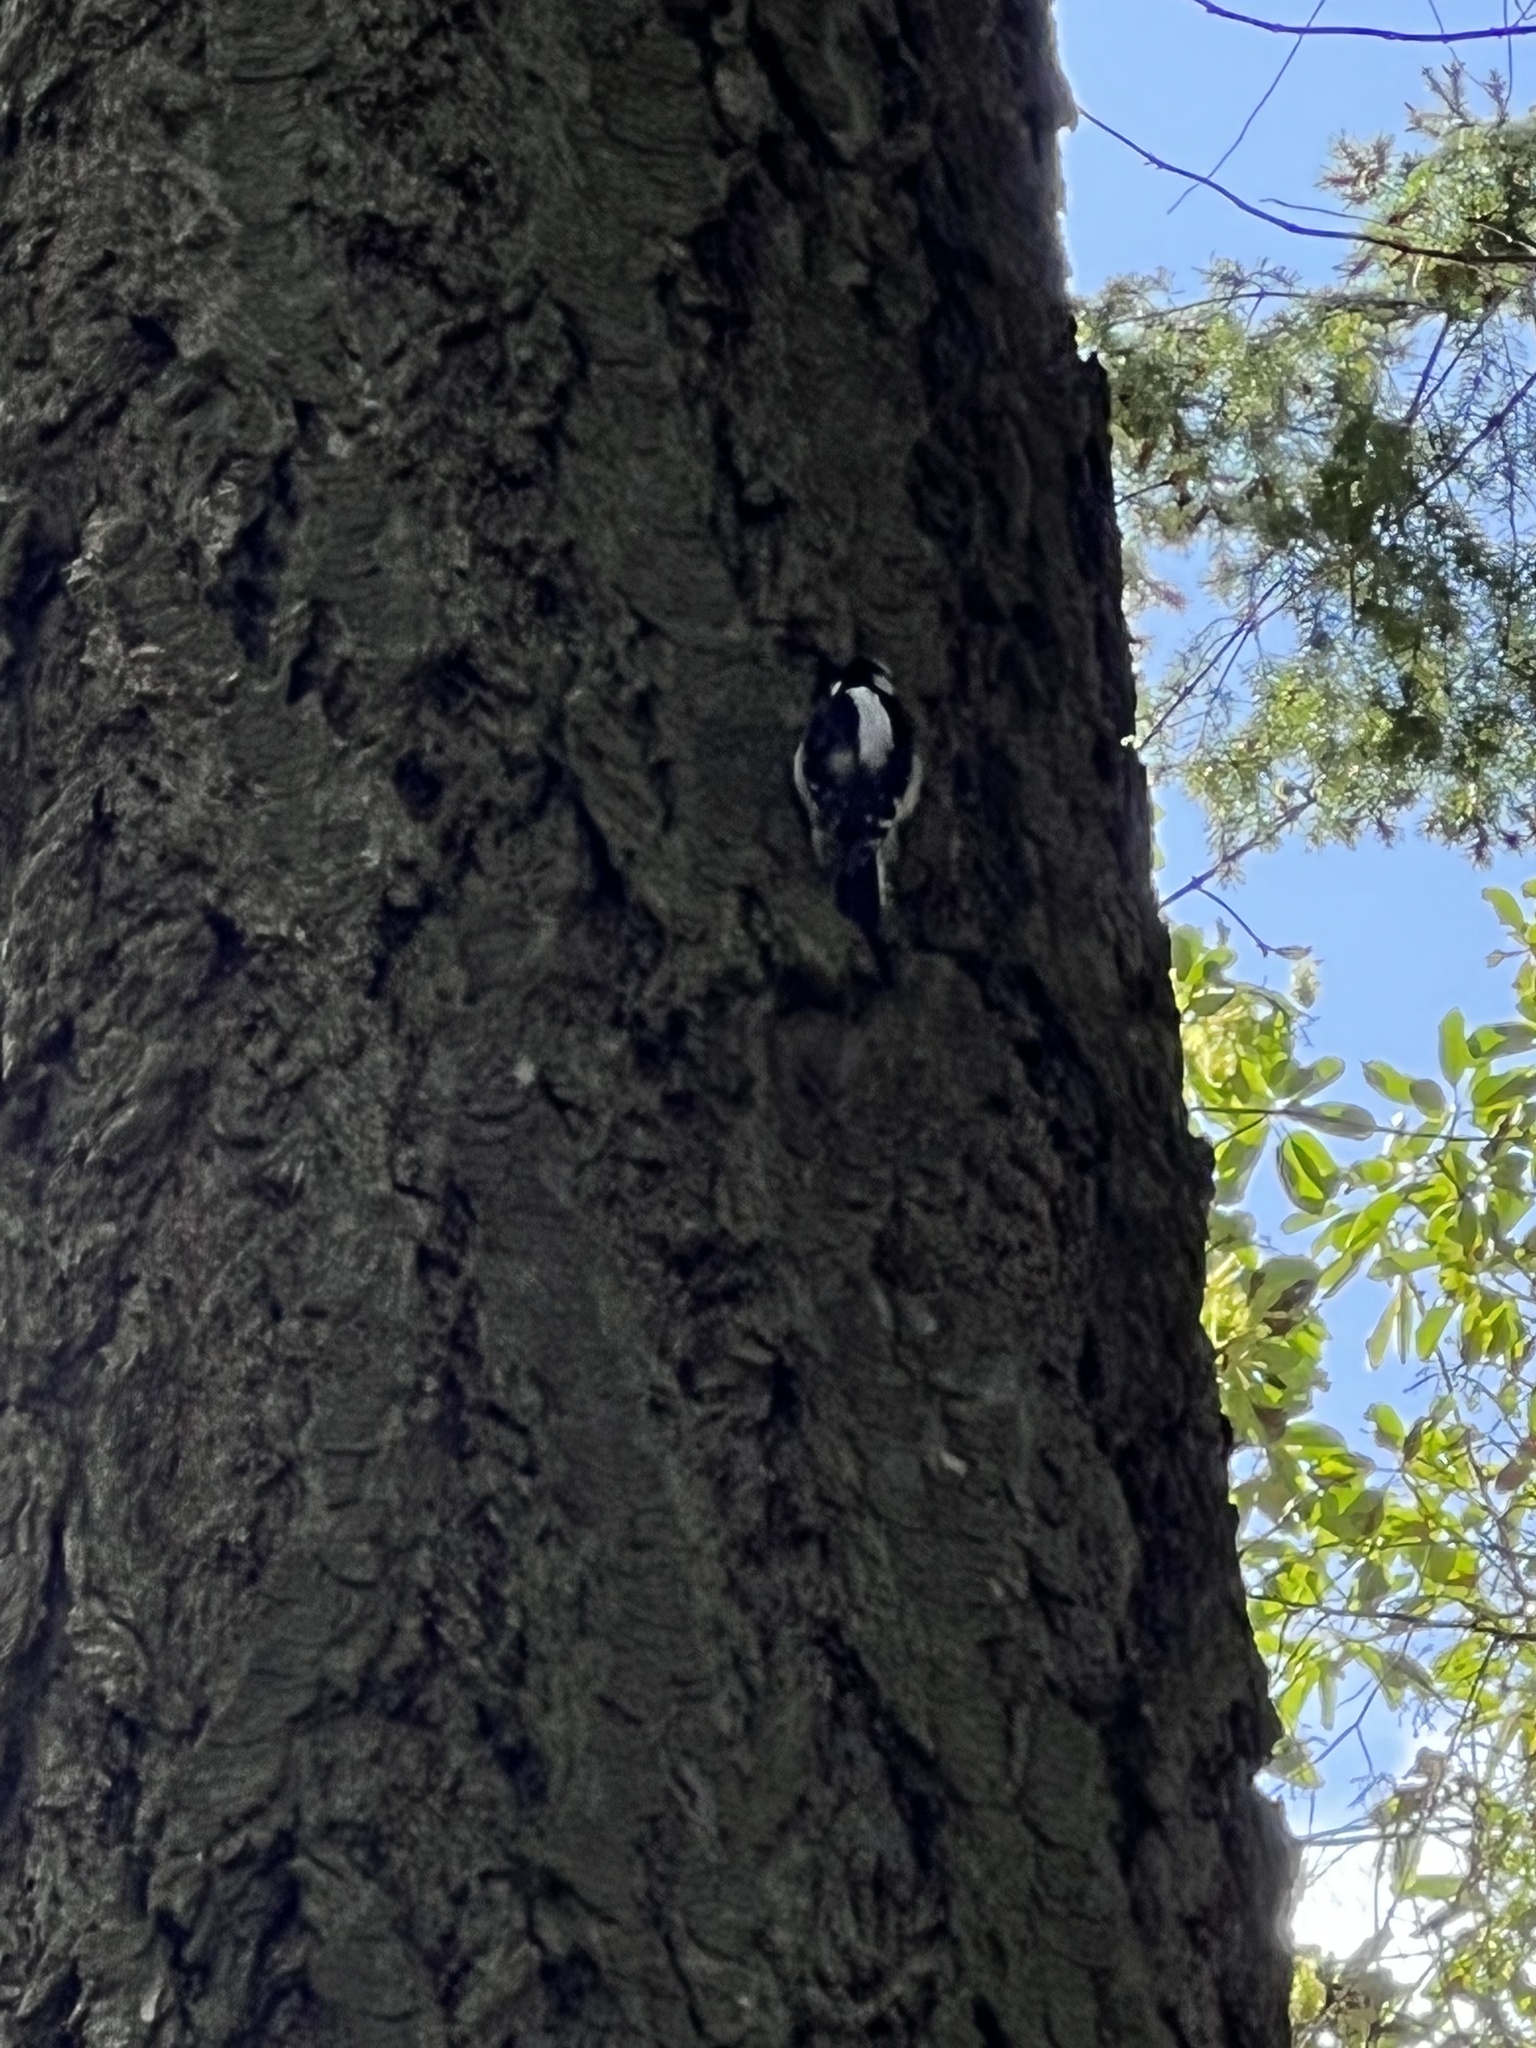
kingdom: Animalia
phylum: Chordata
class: Aves
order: Piciformes
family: Picidae
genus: Dryobates
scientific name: Dryobates pubescens
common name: Downy woodpecker
